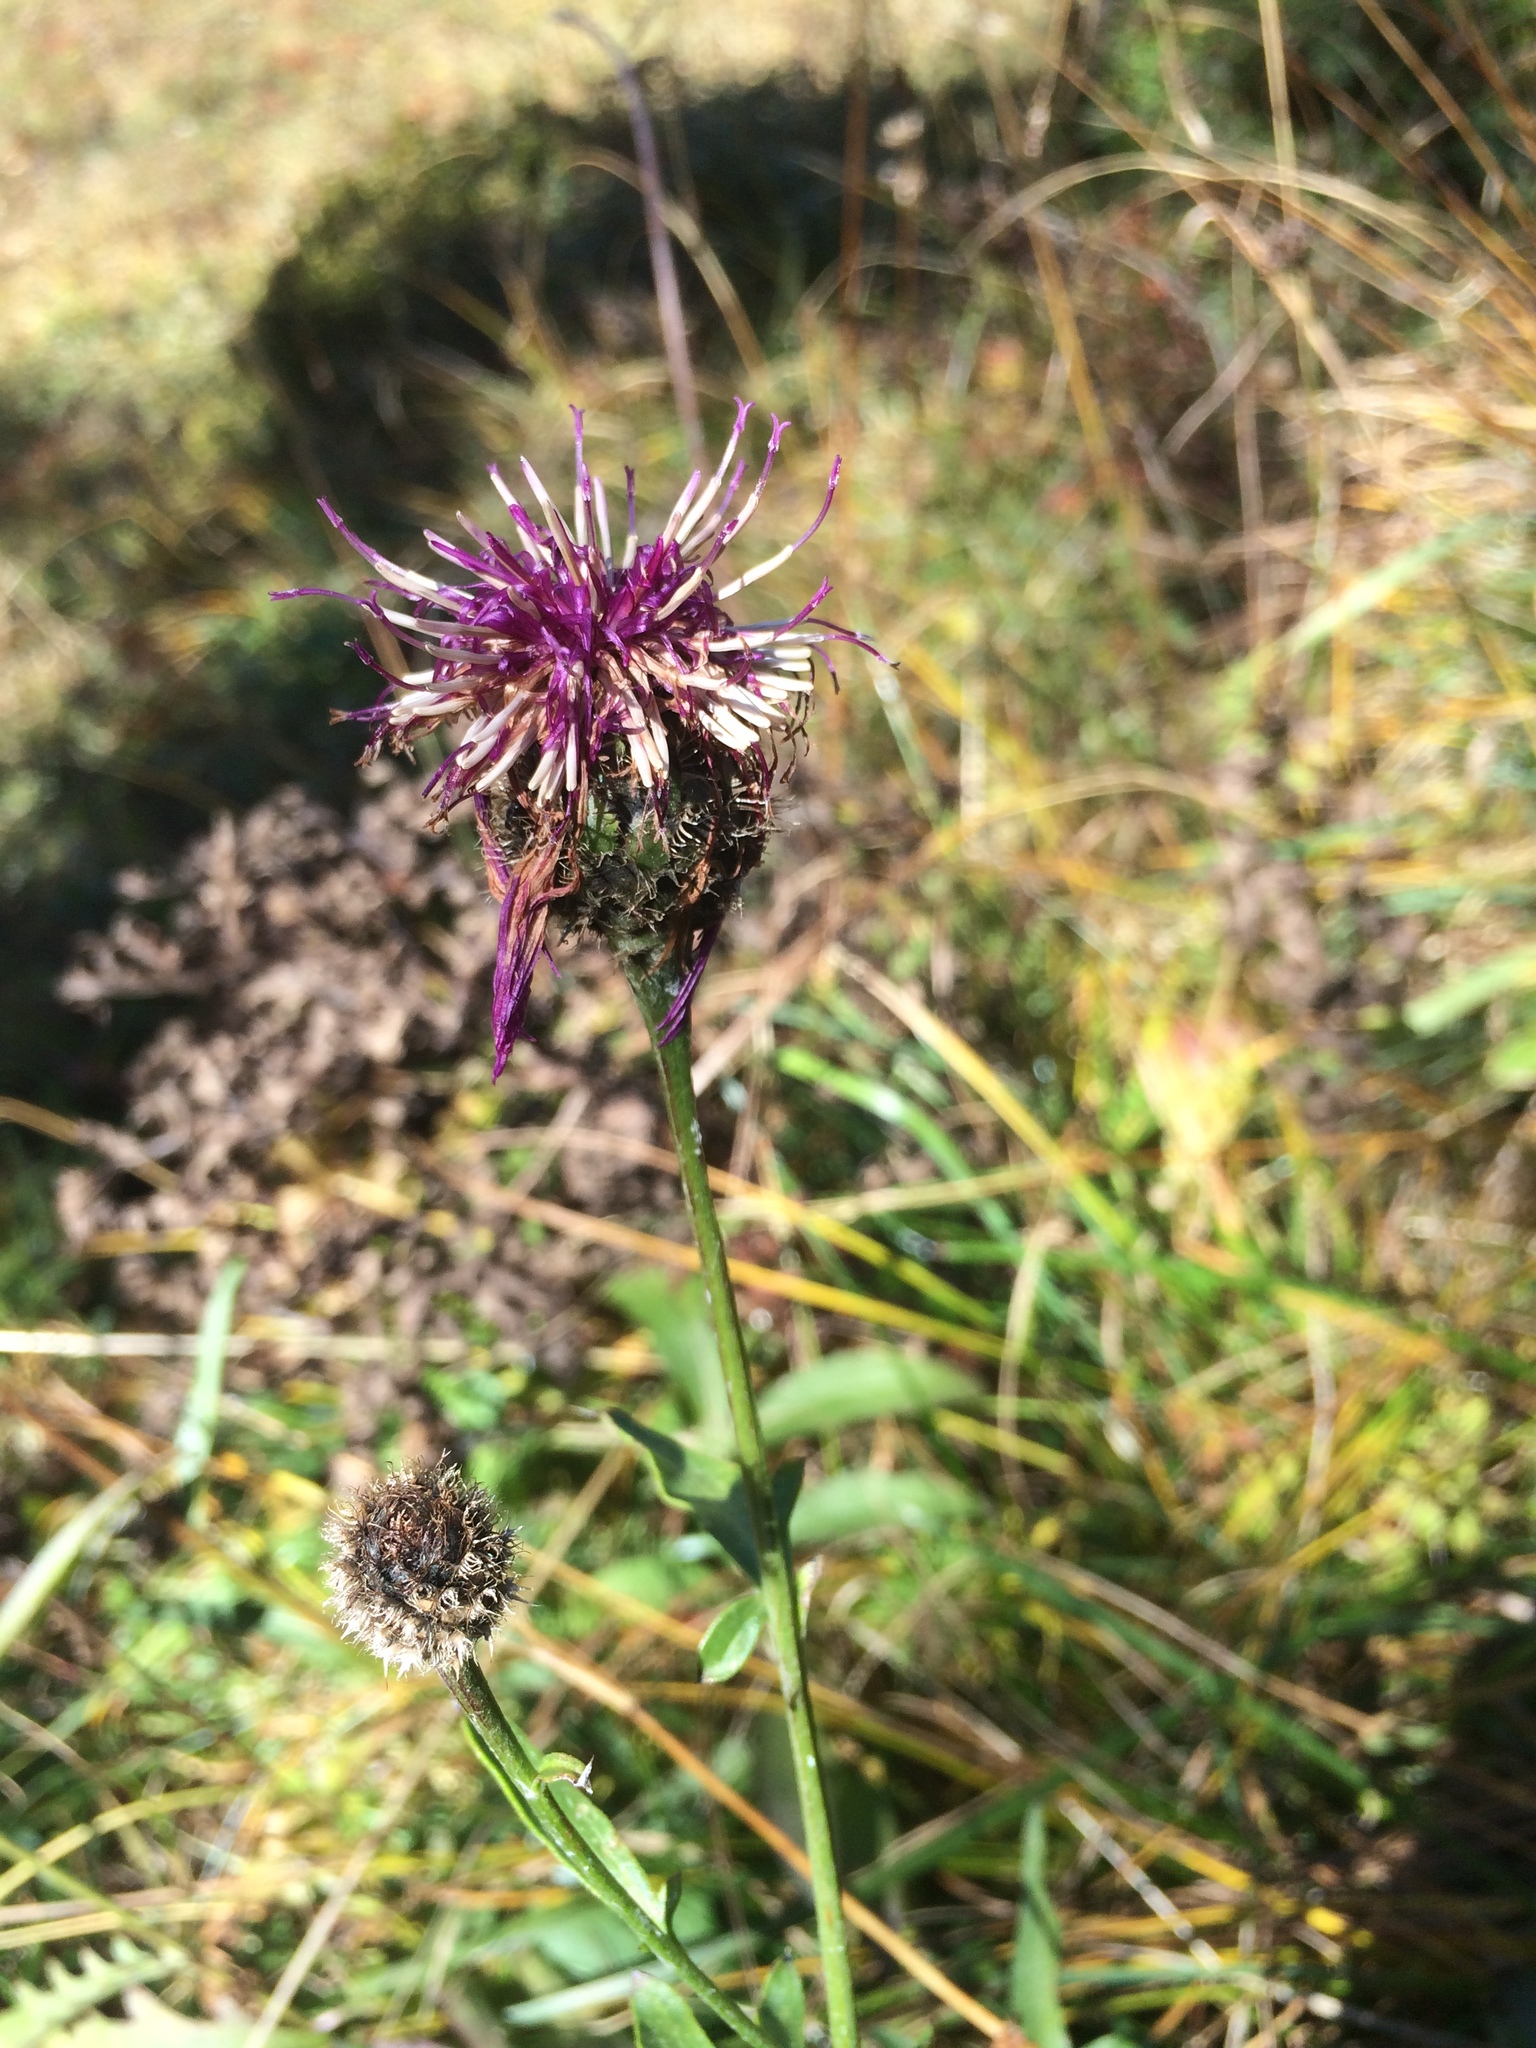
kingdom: Plantae
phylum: Tracheophyta
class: Magnoliopsida
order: Asterales
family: Asteraceae
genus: Centaurea
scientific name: Centaurea scabiosa
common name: Greater knapweed
